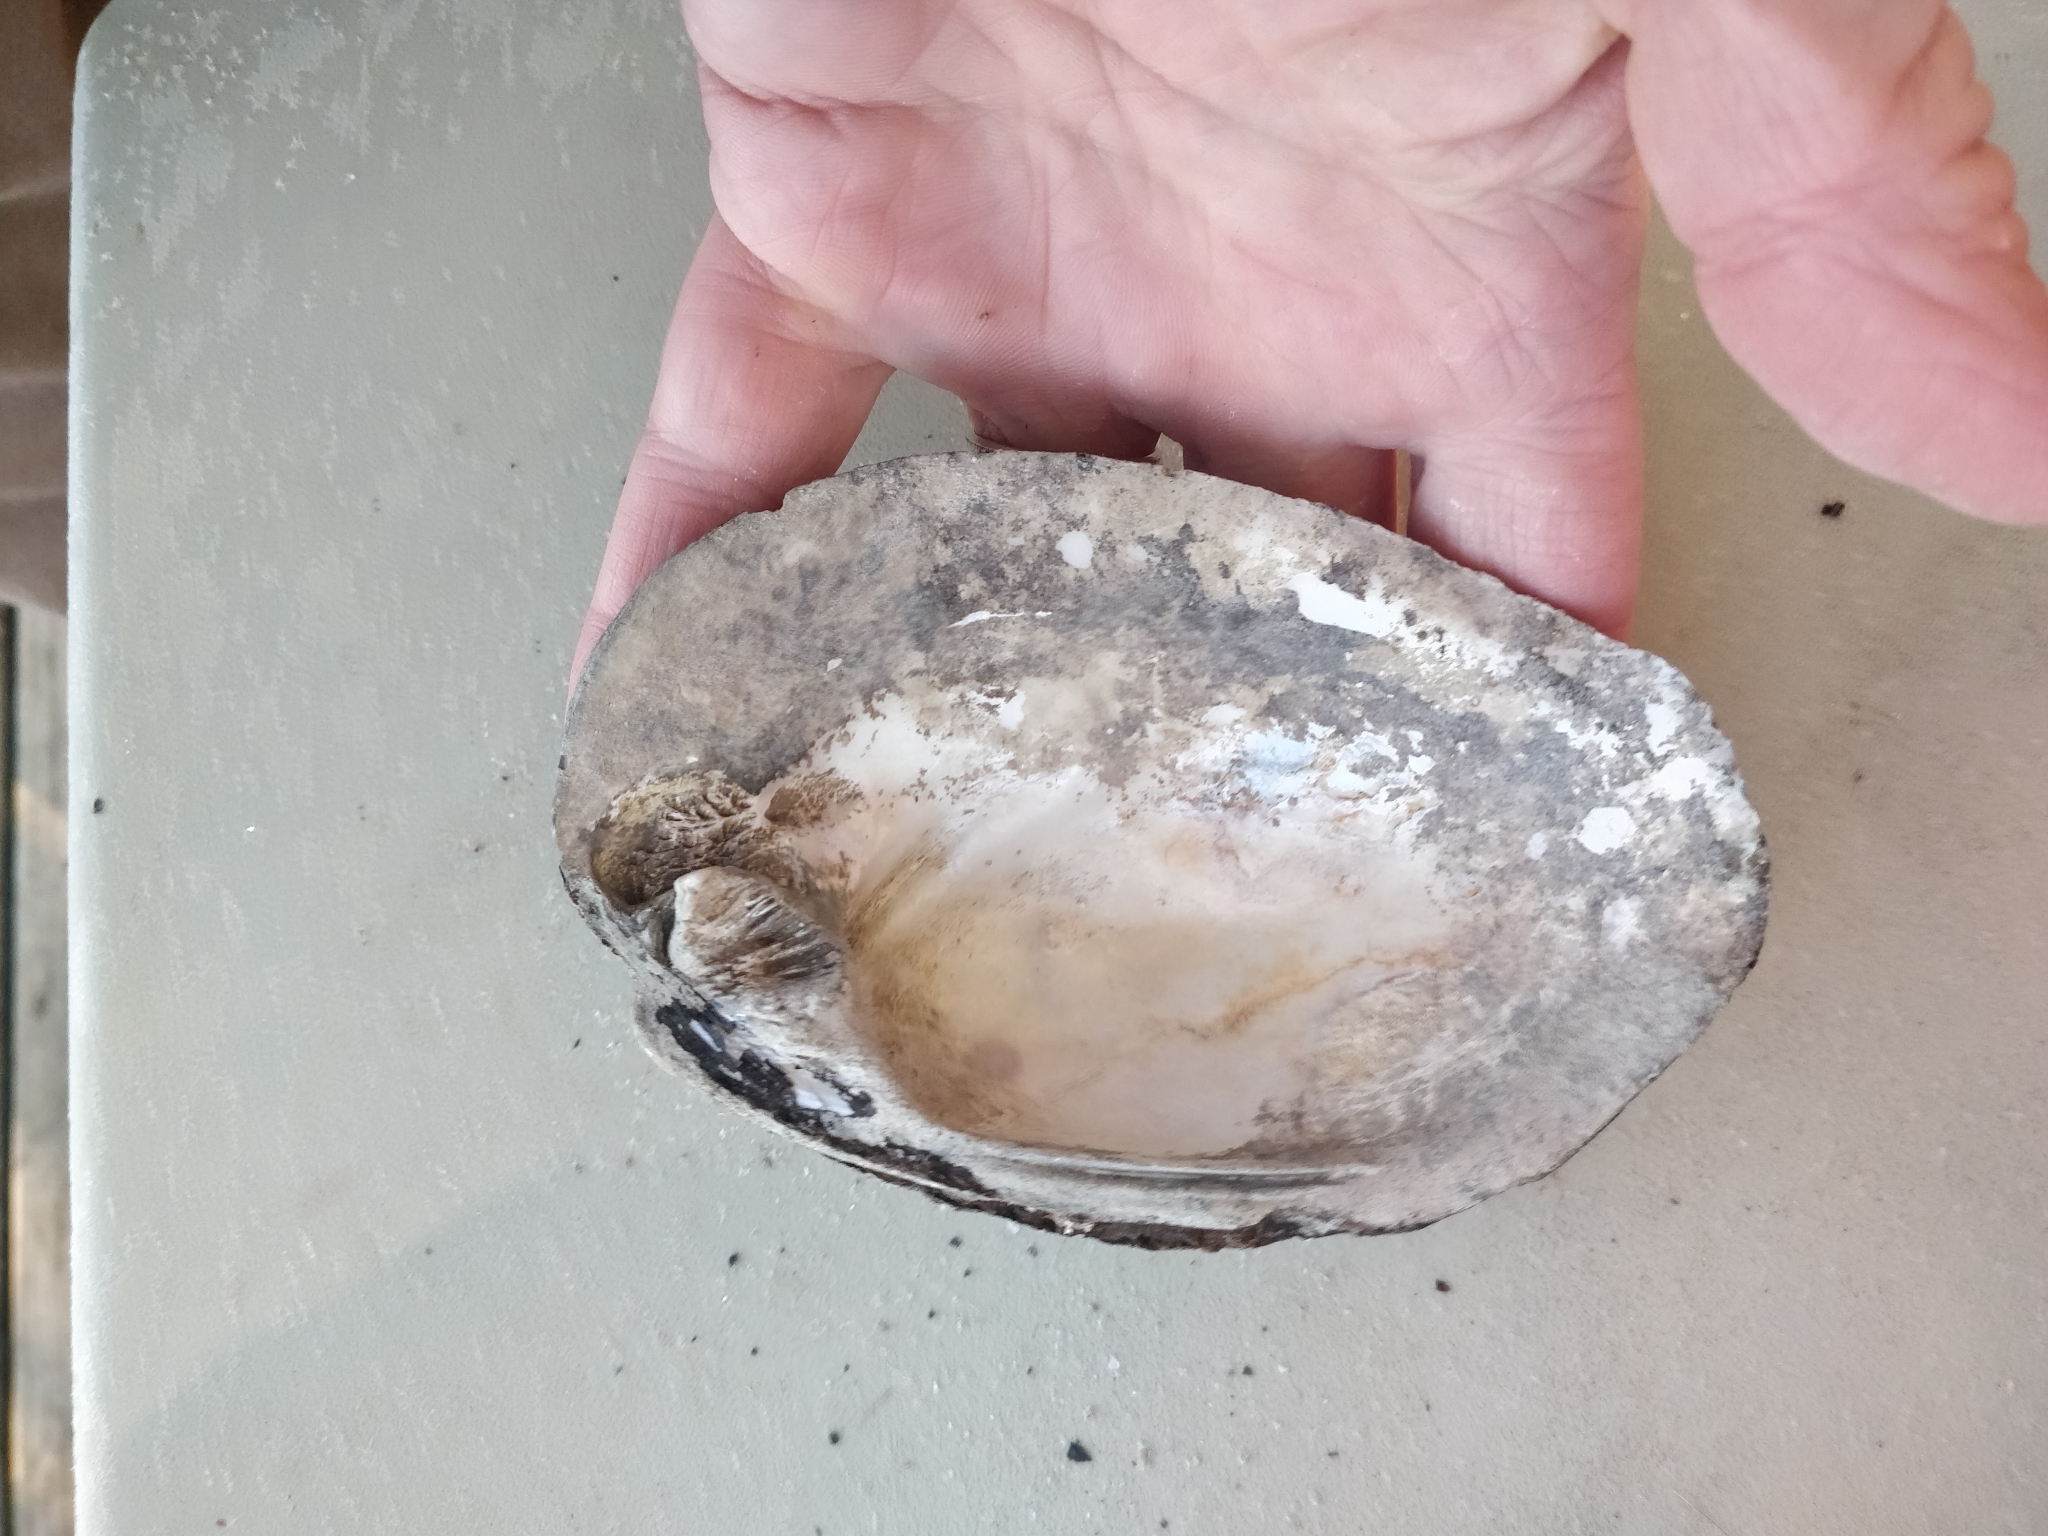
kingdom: Animalia
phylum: Mollusca
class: Bivalvia
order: Unionida
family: Unionidae
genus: Amblema
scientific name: Amblema plicata
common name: Threeridge
